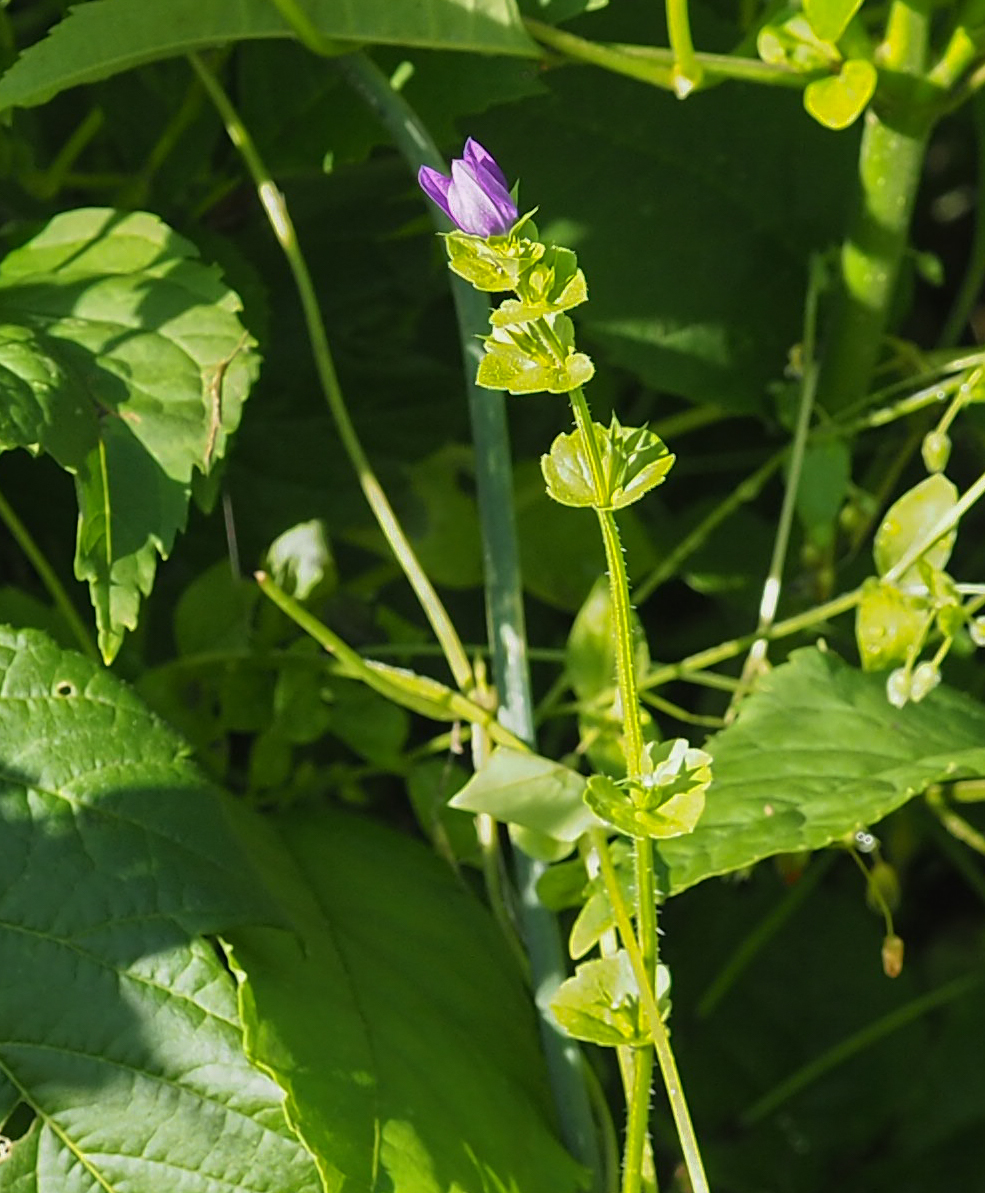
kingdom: Plantae
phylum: Tracheophyta
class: Magnoliopsida
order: Asterales
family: Campanulaceae
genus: Triodanis
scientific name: Triodanis perfoliata
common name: Clasping venus' looking-glass
